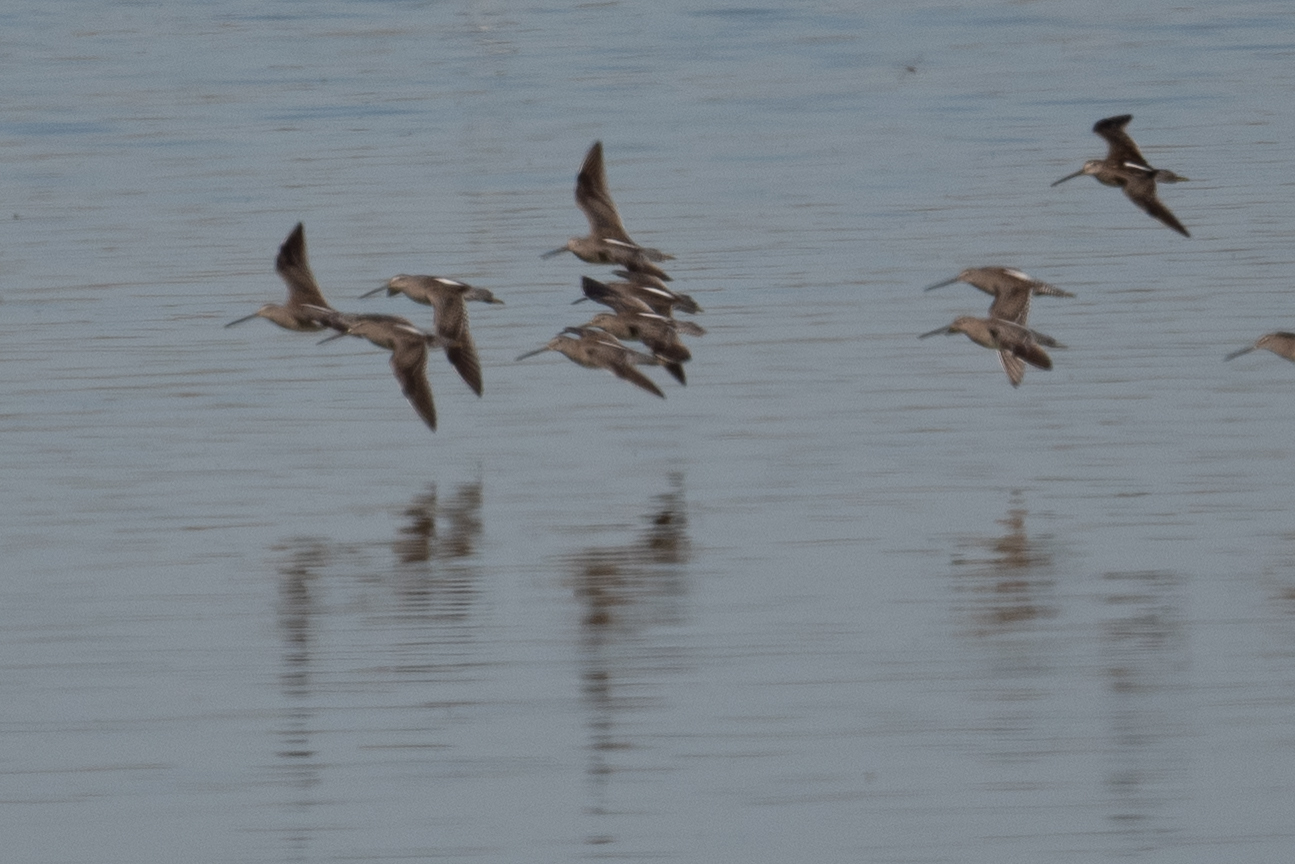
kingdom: Animalia
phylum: Chordata
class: Aves
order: Charadriiformes
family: Scolopacidae
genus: Limnodromus
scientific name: Limnodromus scolopaceus
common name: Long-billed dowitcher
